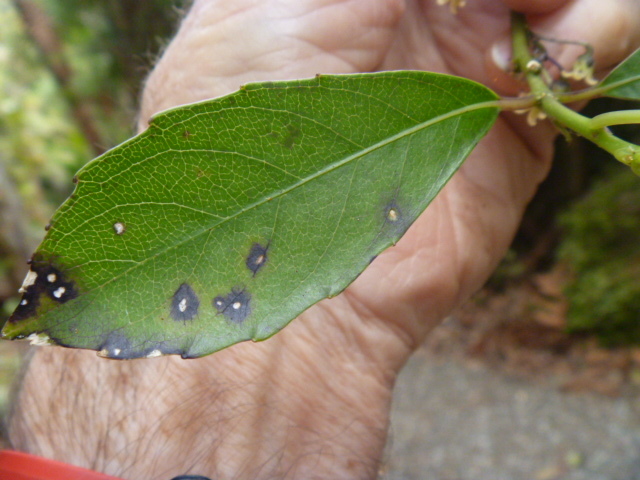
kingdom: Plantae
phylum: Tracheophyta
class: Magnoliopsida
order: Malpighiales
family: Violaceae
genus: Melicytus
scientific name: Melicytus macrophyllus
